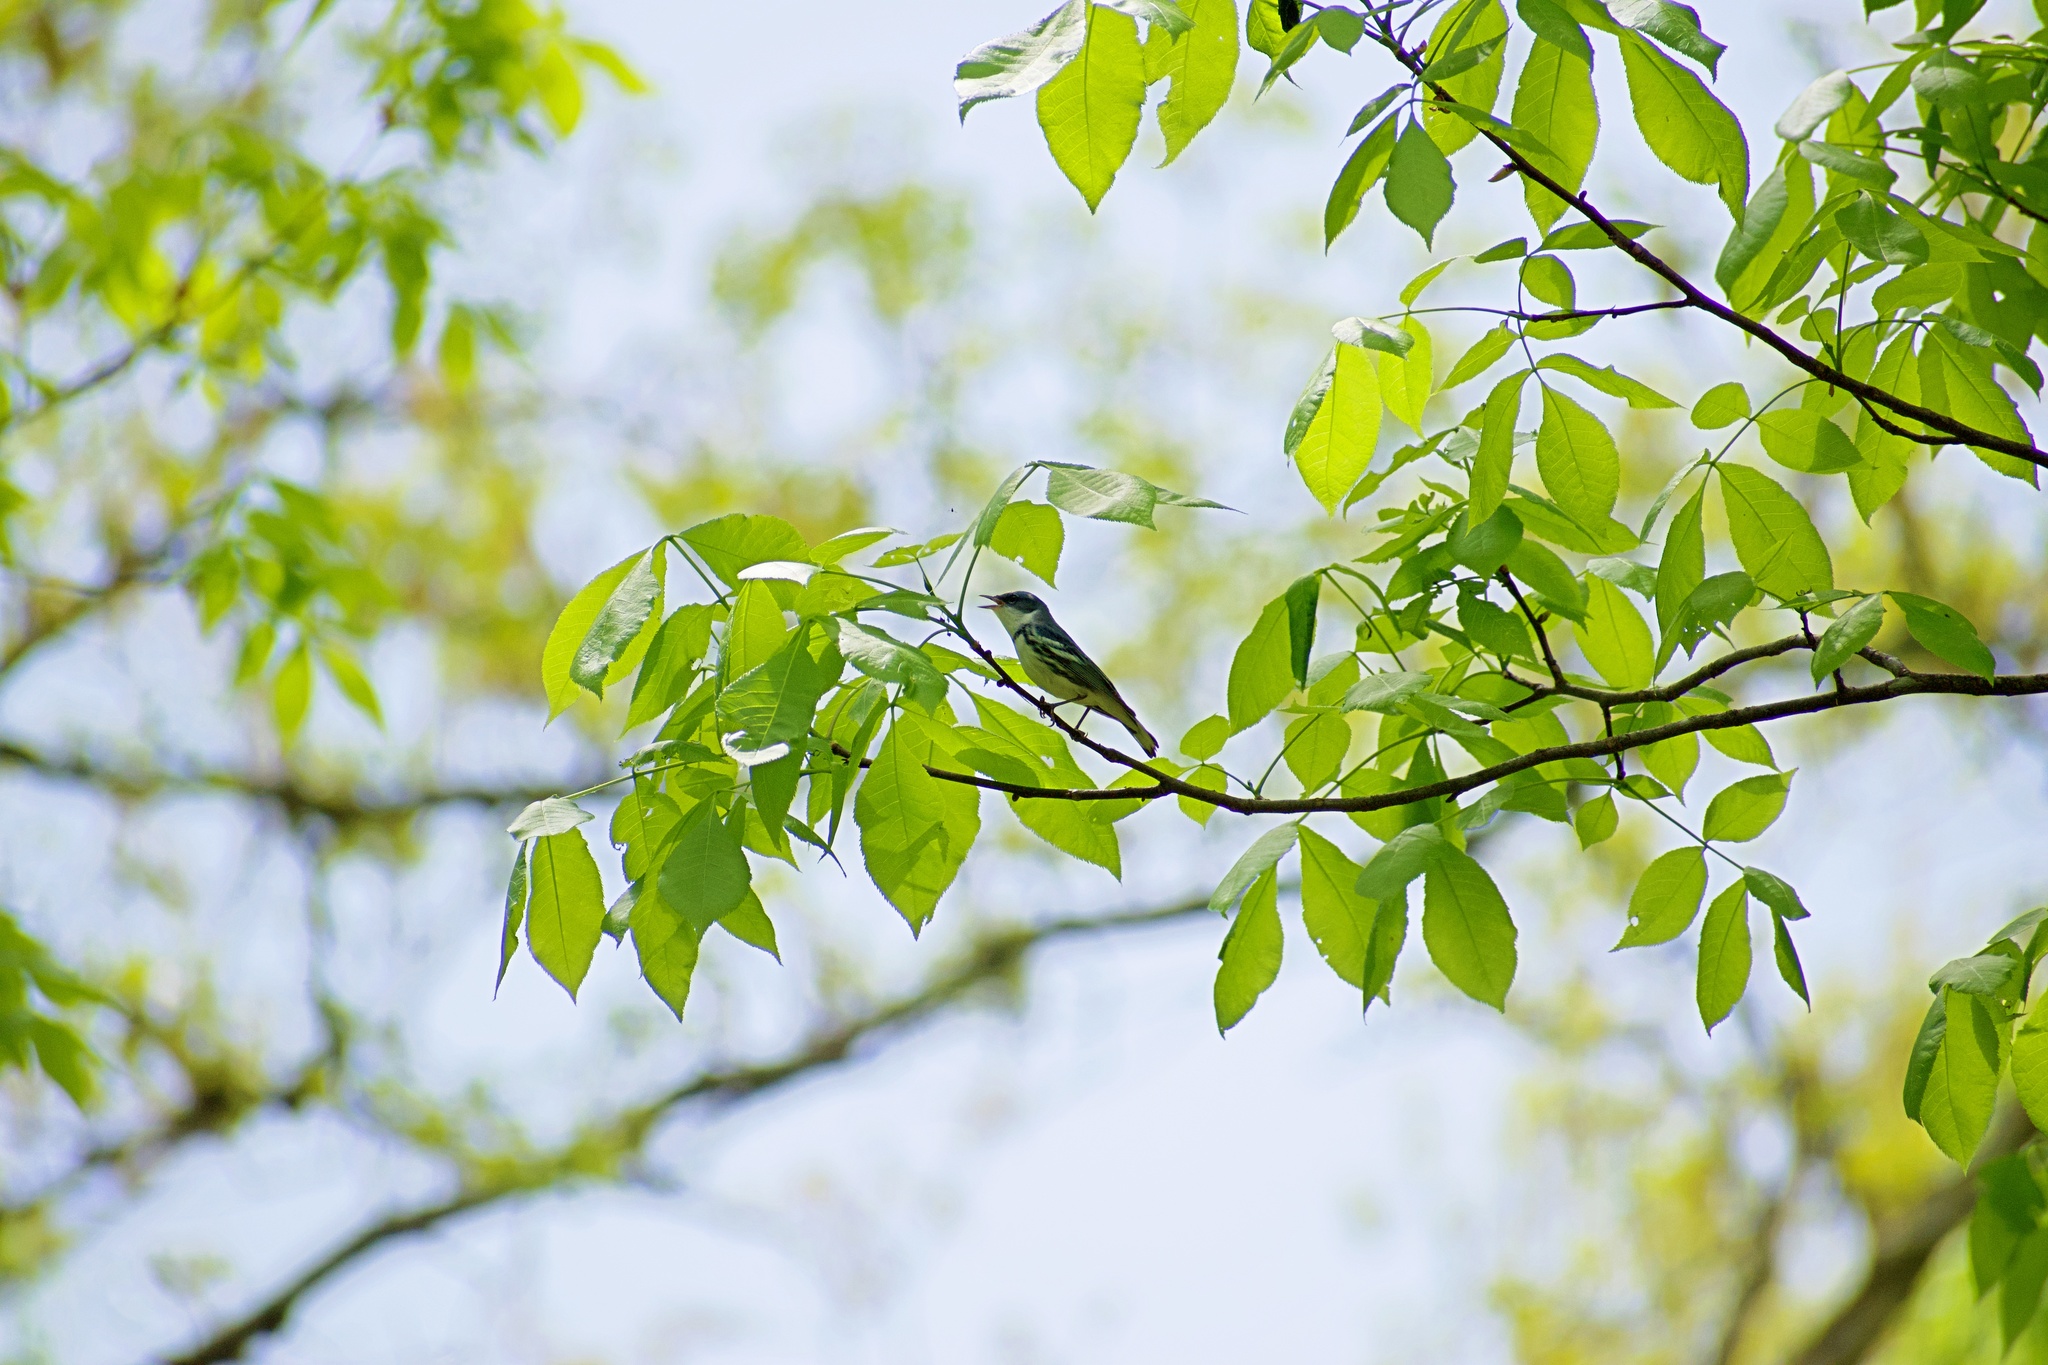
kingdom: Animalia
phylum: Chordata
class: Aves
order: Passeriformes
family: Parulidae
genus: Setophaga
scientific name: Setophaga cerulea
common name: Cerulean warbler
